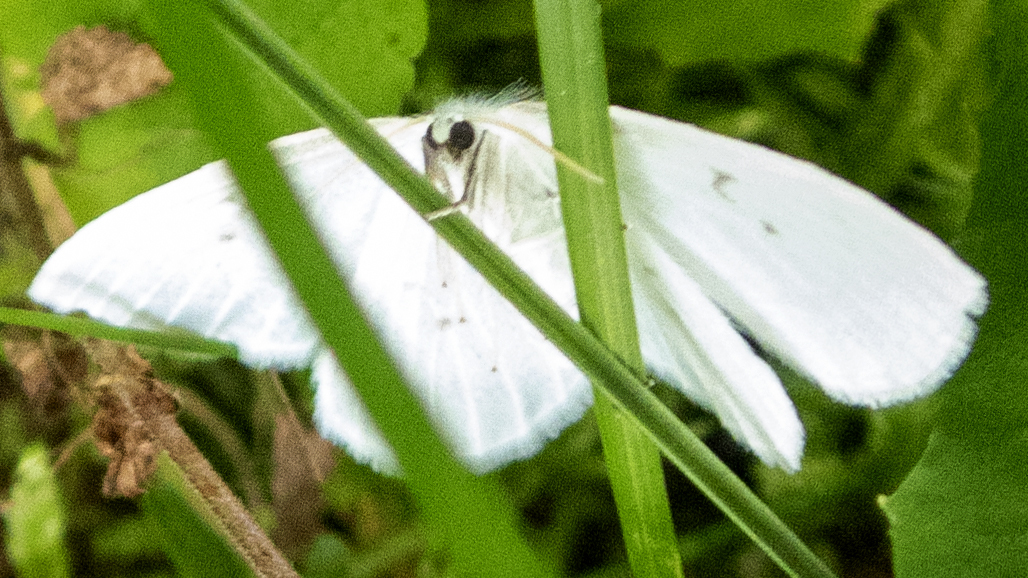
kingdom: Animalia
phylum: Arthropoda
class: Insecta
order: Lepidoptera
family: Drepanidae
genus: Eudeilinia
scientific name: Eudeilinia herminiata
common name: Northern eudeilinea moth
